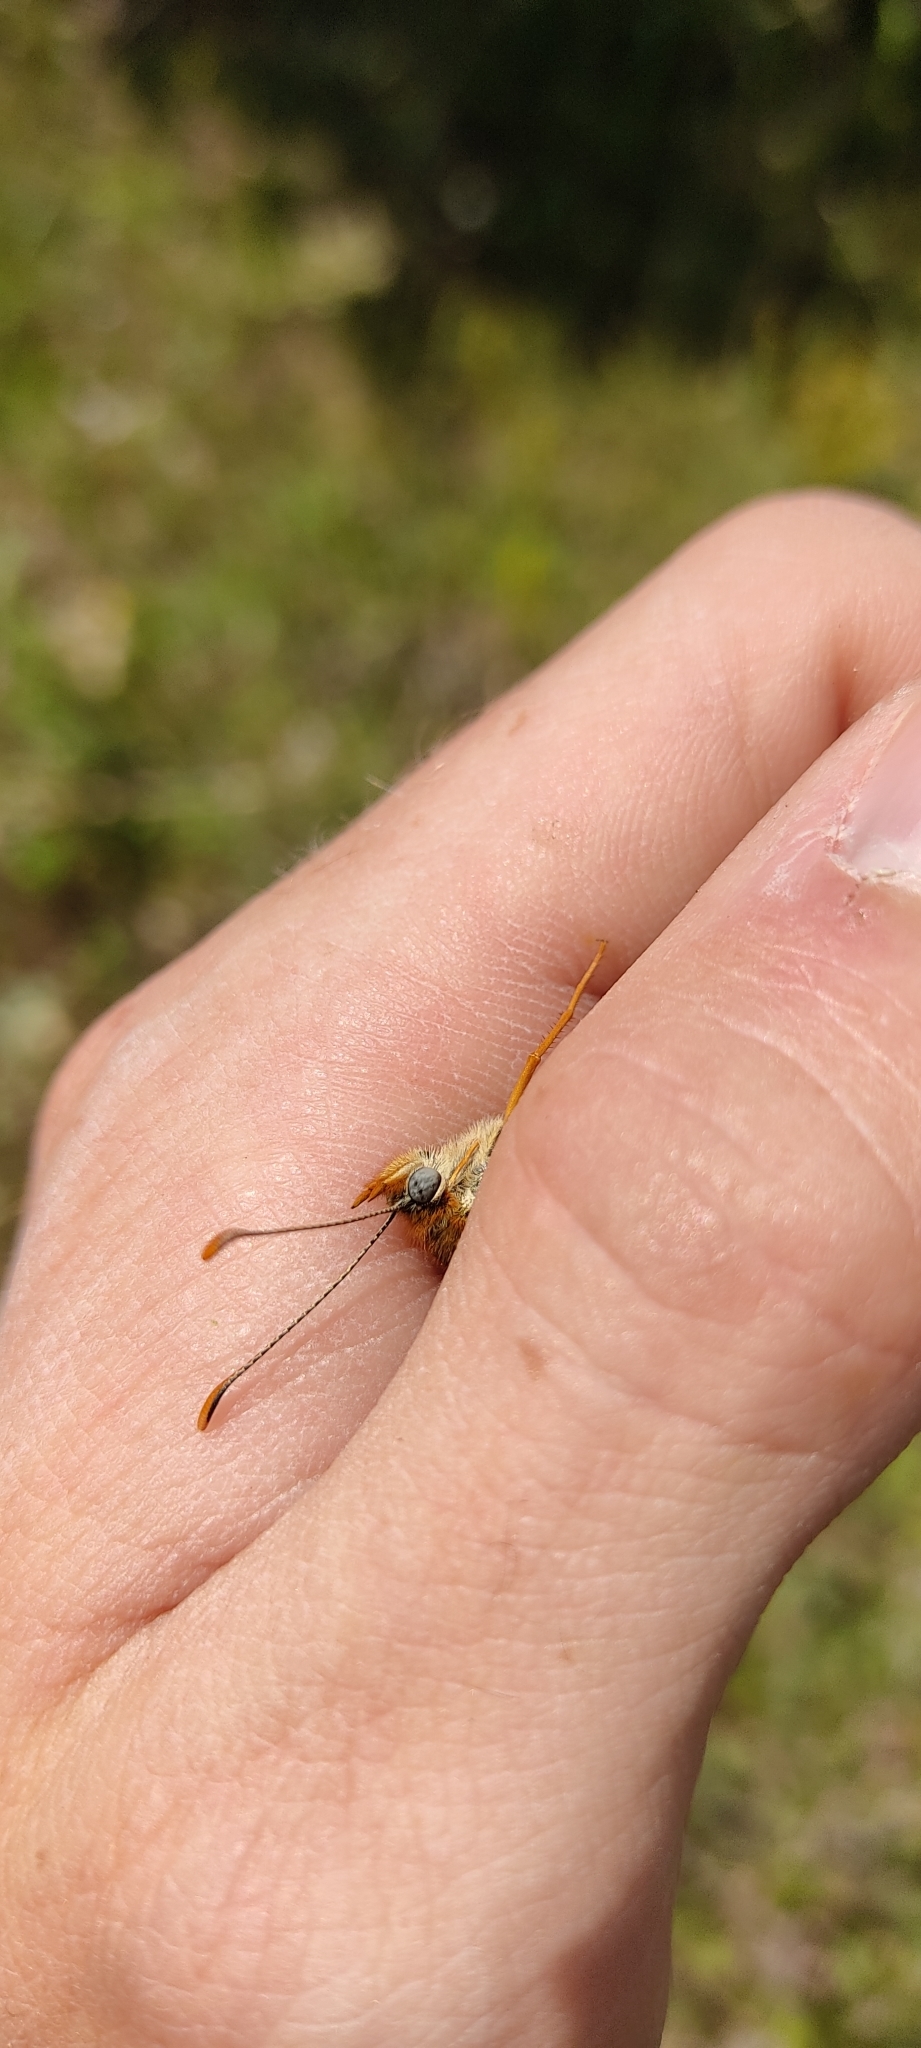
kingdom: Animalia
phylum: Arthropoda
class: Insecta
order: Lepidoptera
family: Nymphalidae
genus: Melitaea
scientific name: Melitaea phoebe
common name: Knapweed fritillary
